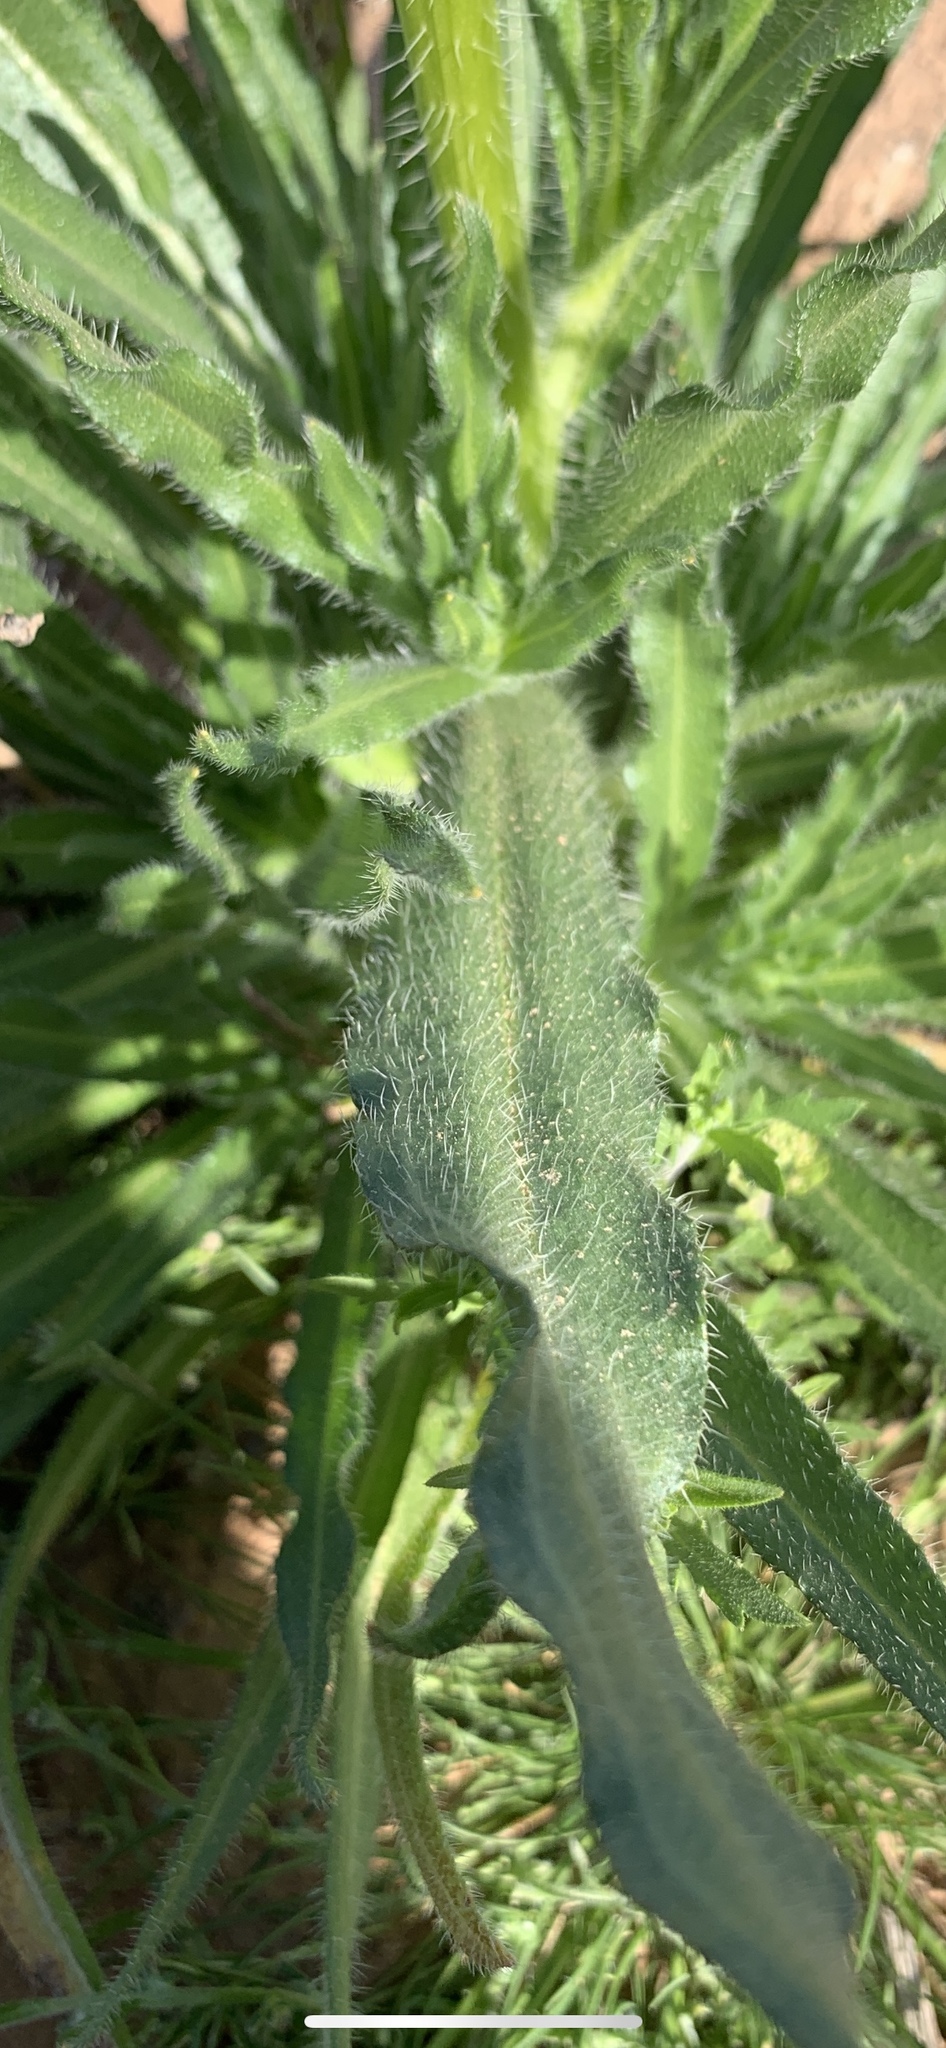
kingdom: Plantae
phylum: Tracheophyta
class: Magnoliopsida
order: Boraginales
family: Boraginaceae
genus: Amsinckia
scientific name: Amsinckia tessellata
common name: Tessellate fiddleneck
